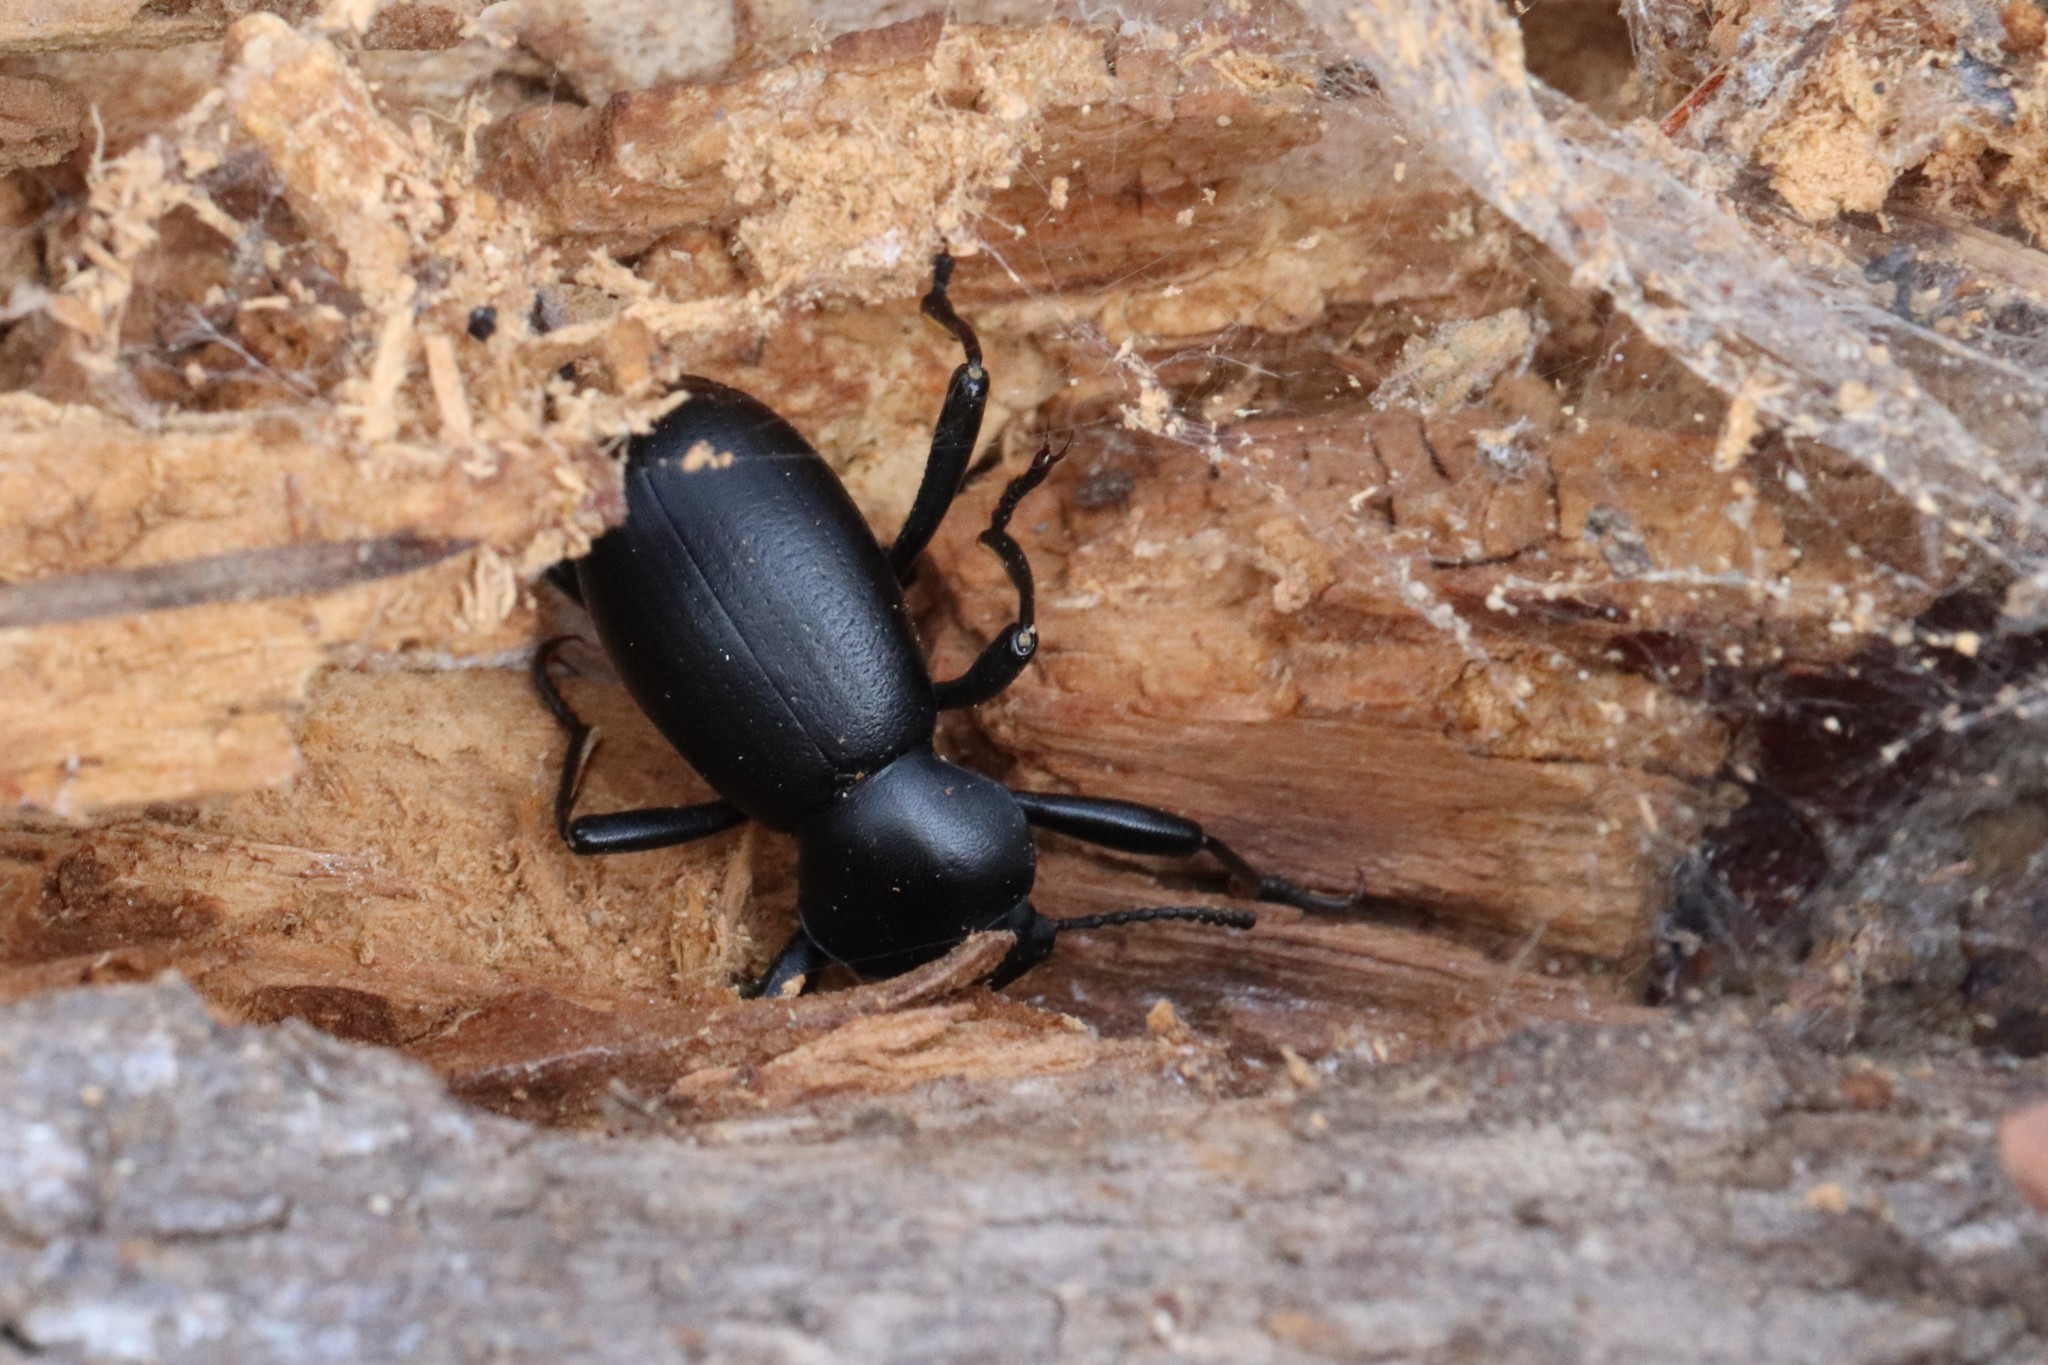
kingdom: Animalia
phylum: Arthropoda
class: Insecta
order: Coleoptera
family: Tenebrionidae
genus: Coelocnemis
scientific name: Coelocnemis dilaticollis
